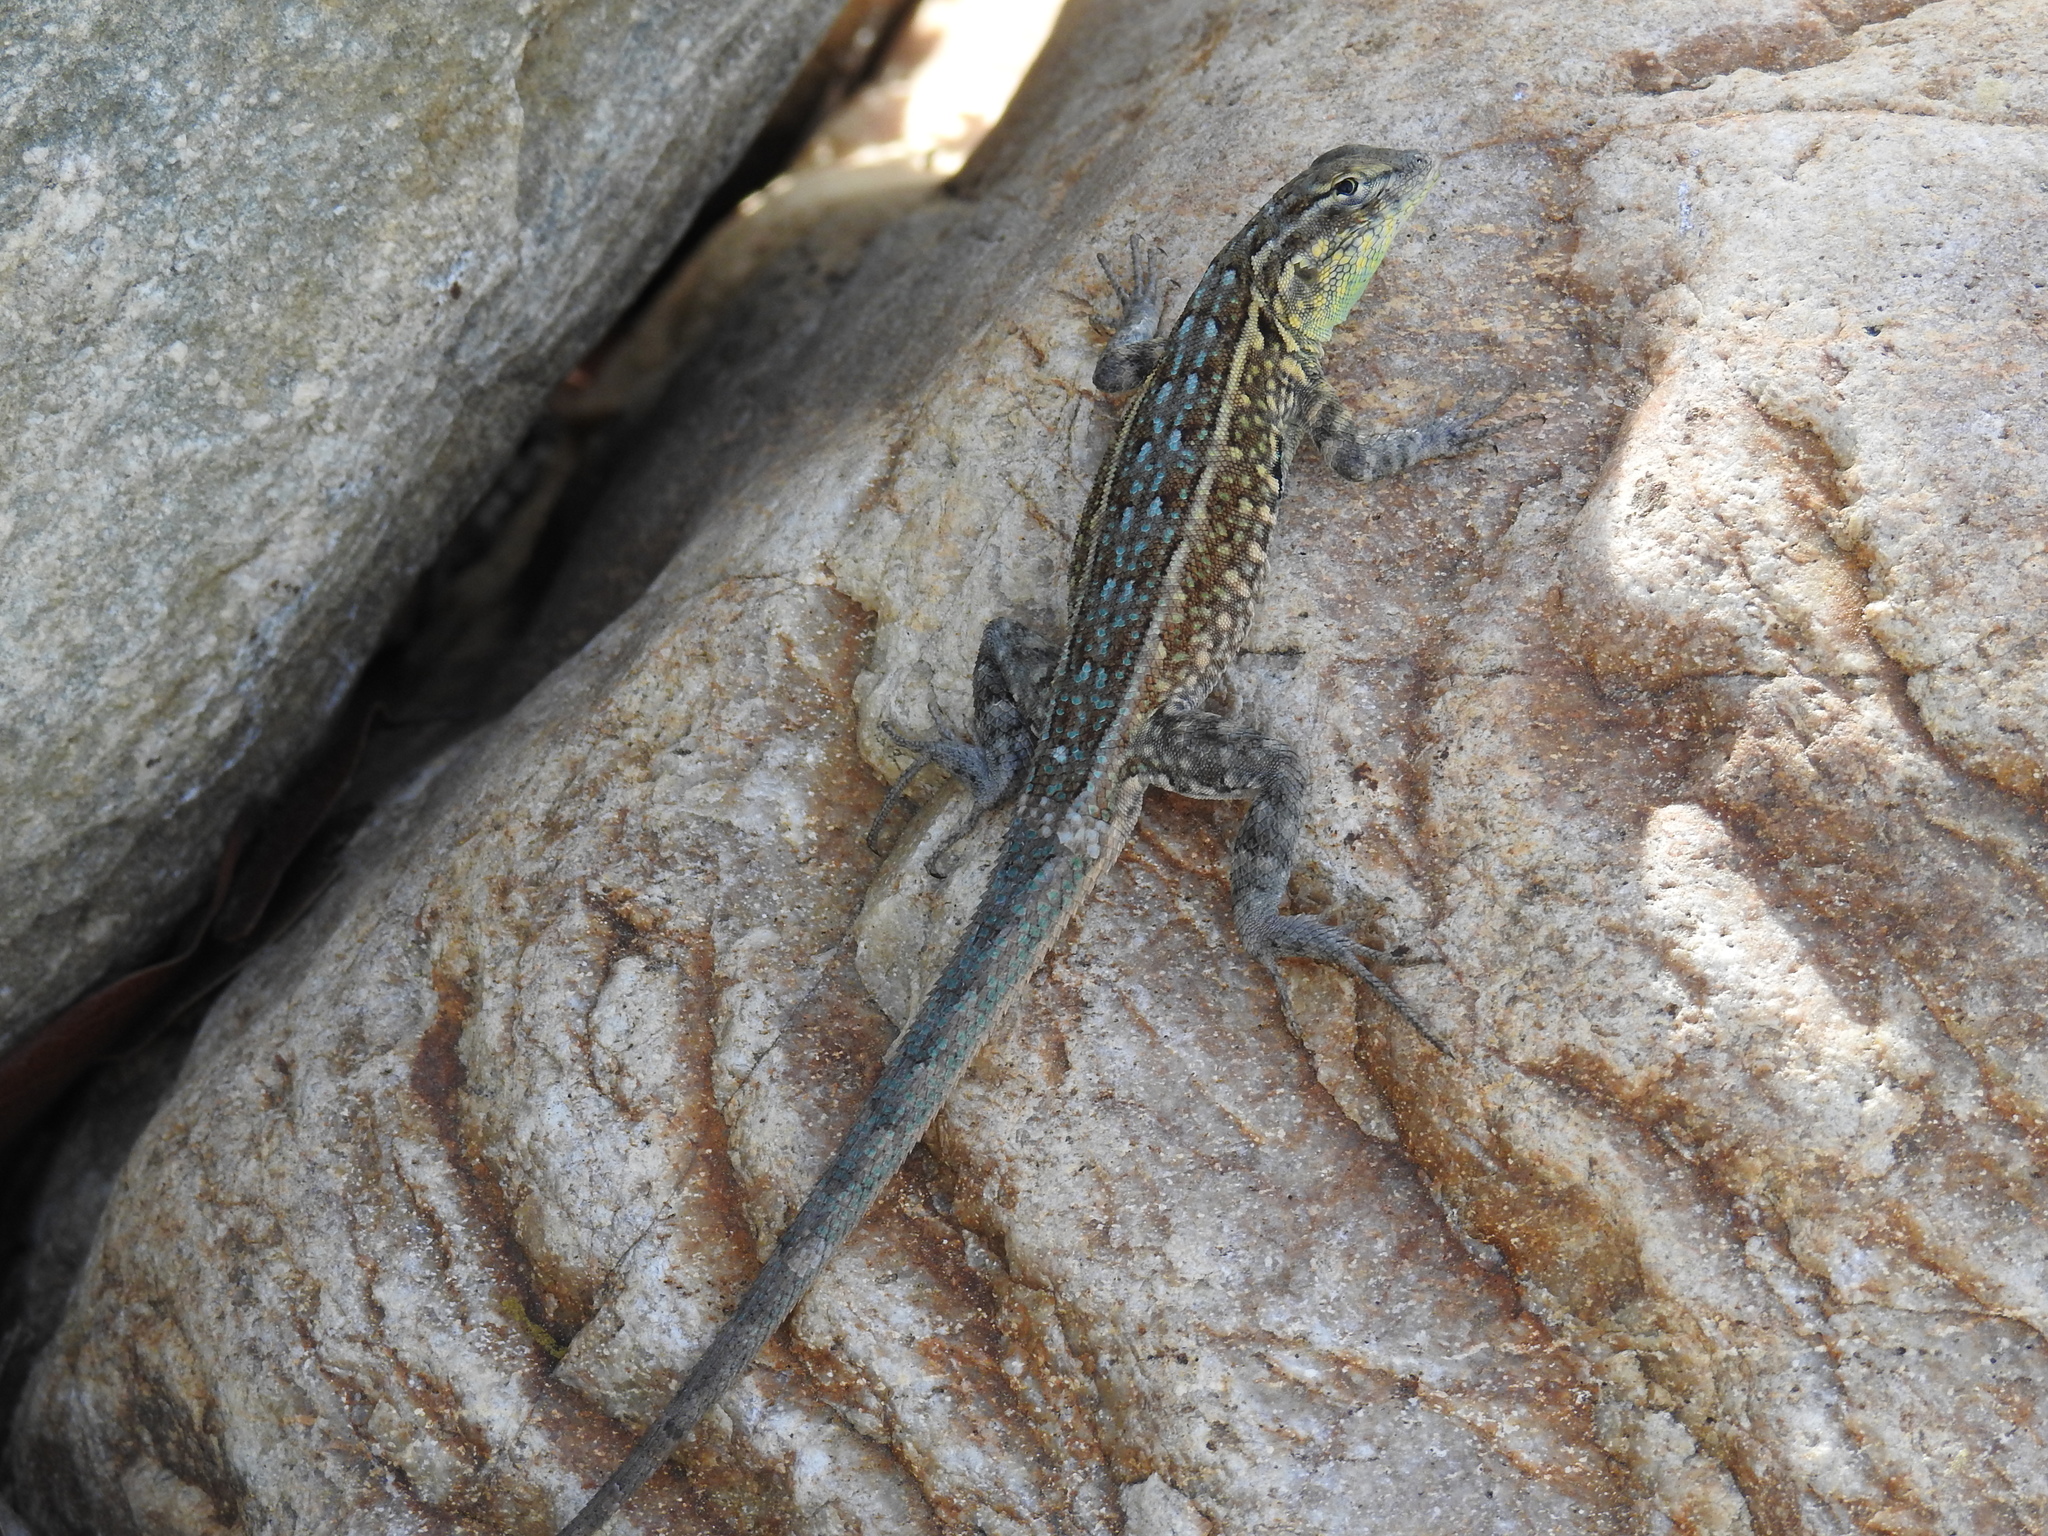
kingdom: Animalia
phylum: Chordata
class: Squamata
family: Phrynosomatidae
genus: Uta
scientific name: Uta stansburiana
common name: Side-blotched lizard
